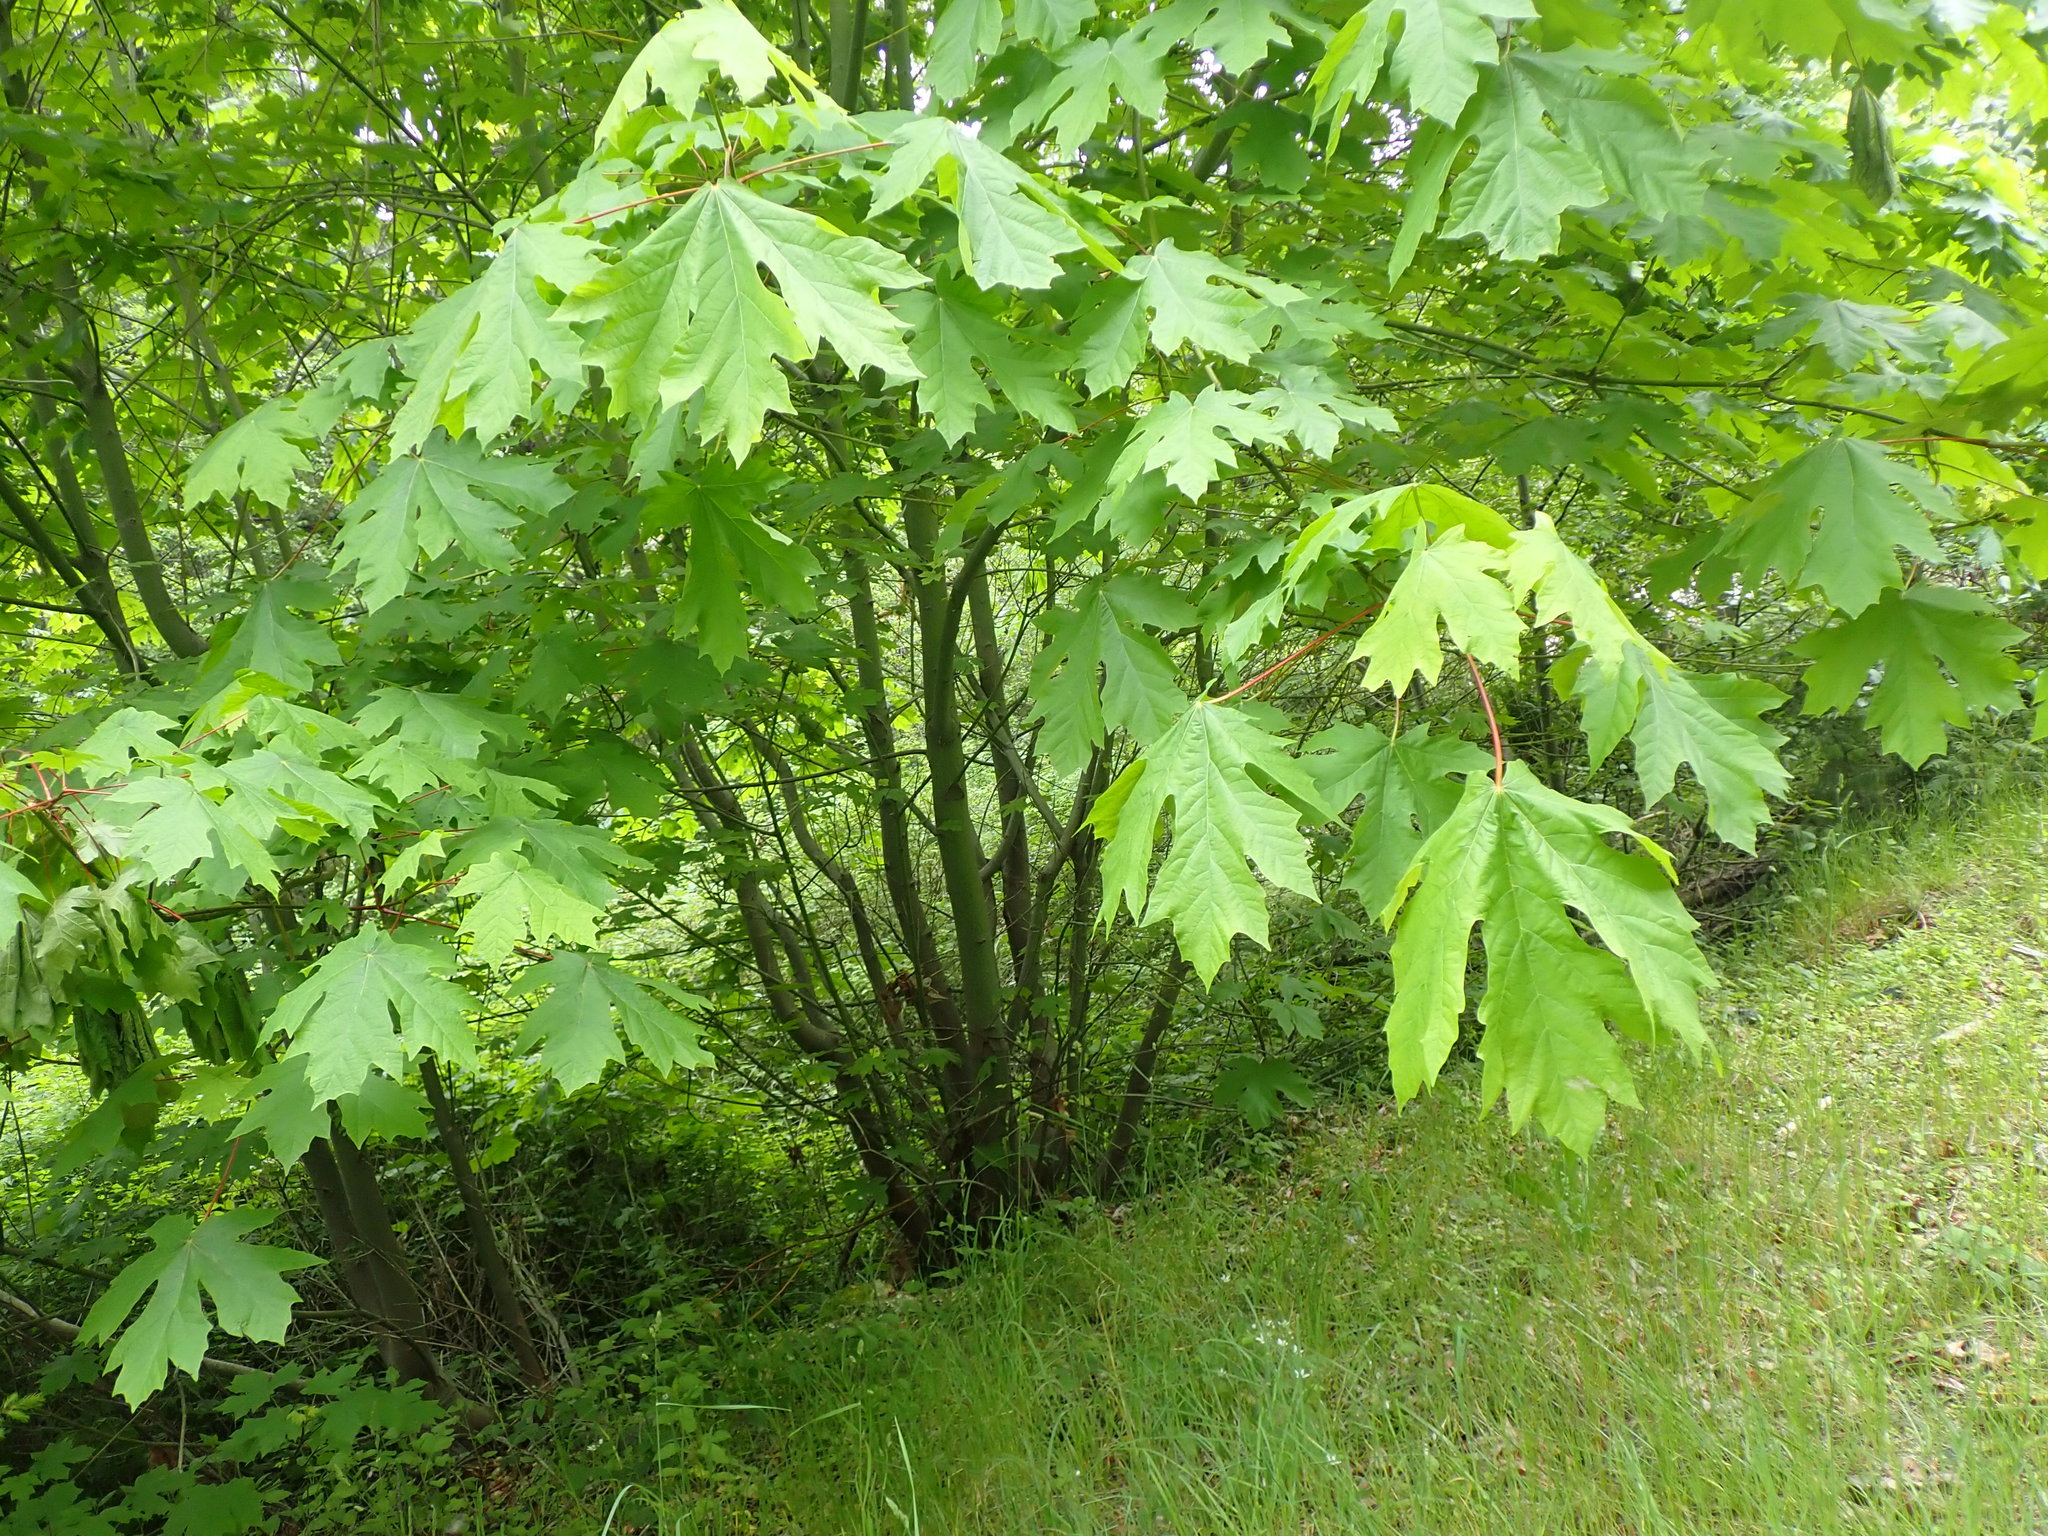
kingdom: Plantae
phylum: Tracheophyta
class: Magnoliopsida
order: Sapindales
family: Sapindaceae
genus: Acer
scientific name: Acer macrophyllum
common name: Oregon maple
